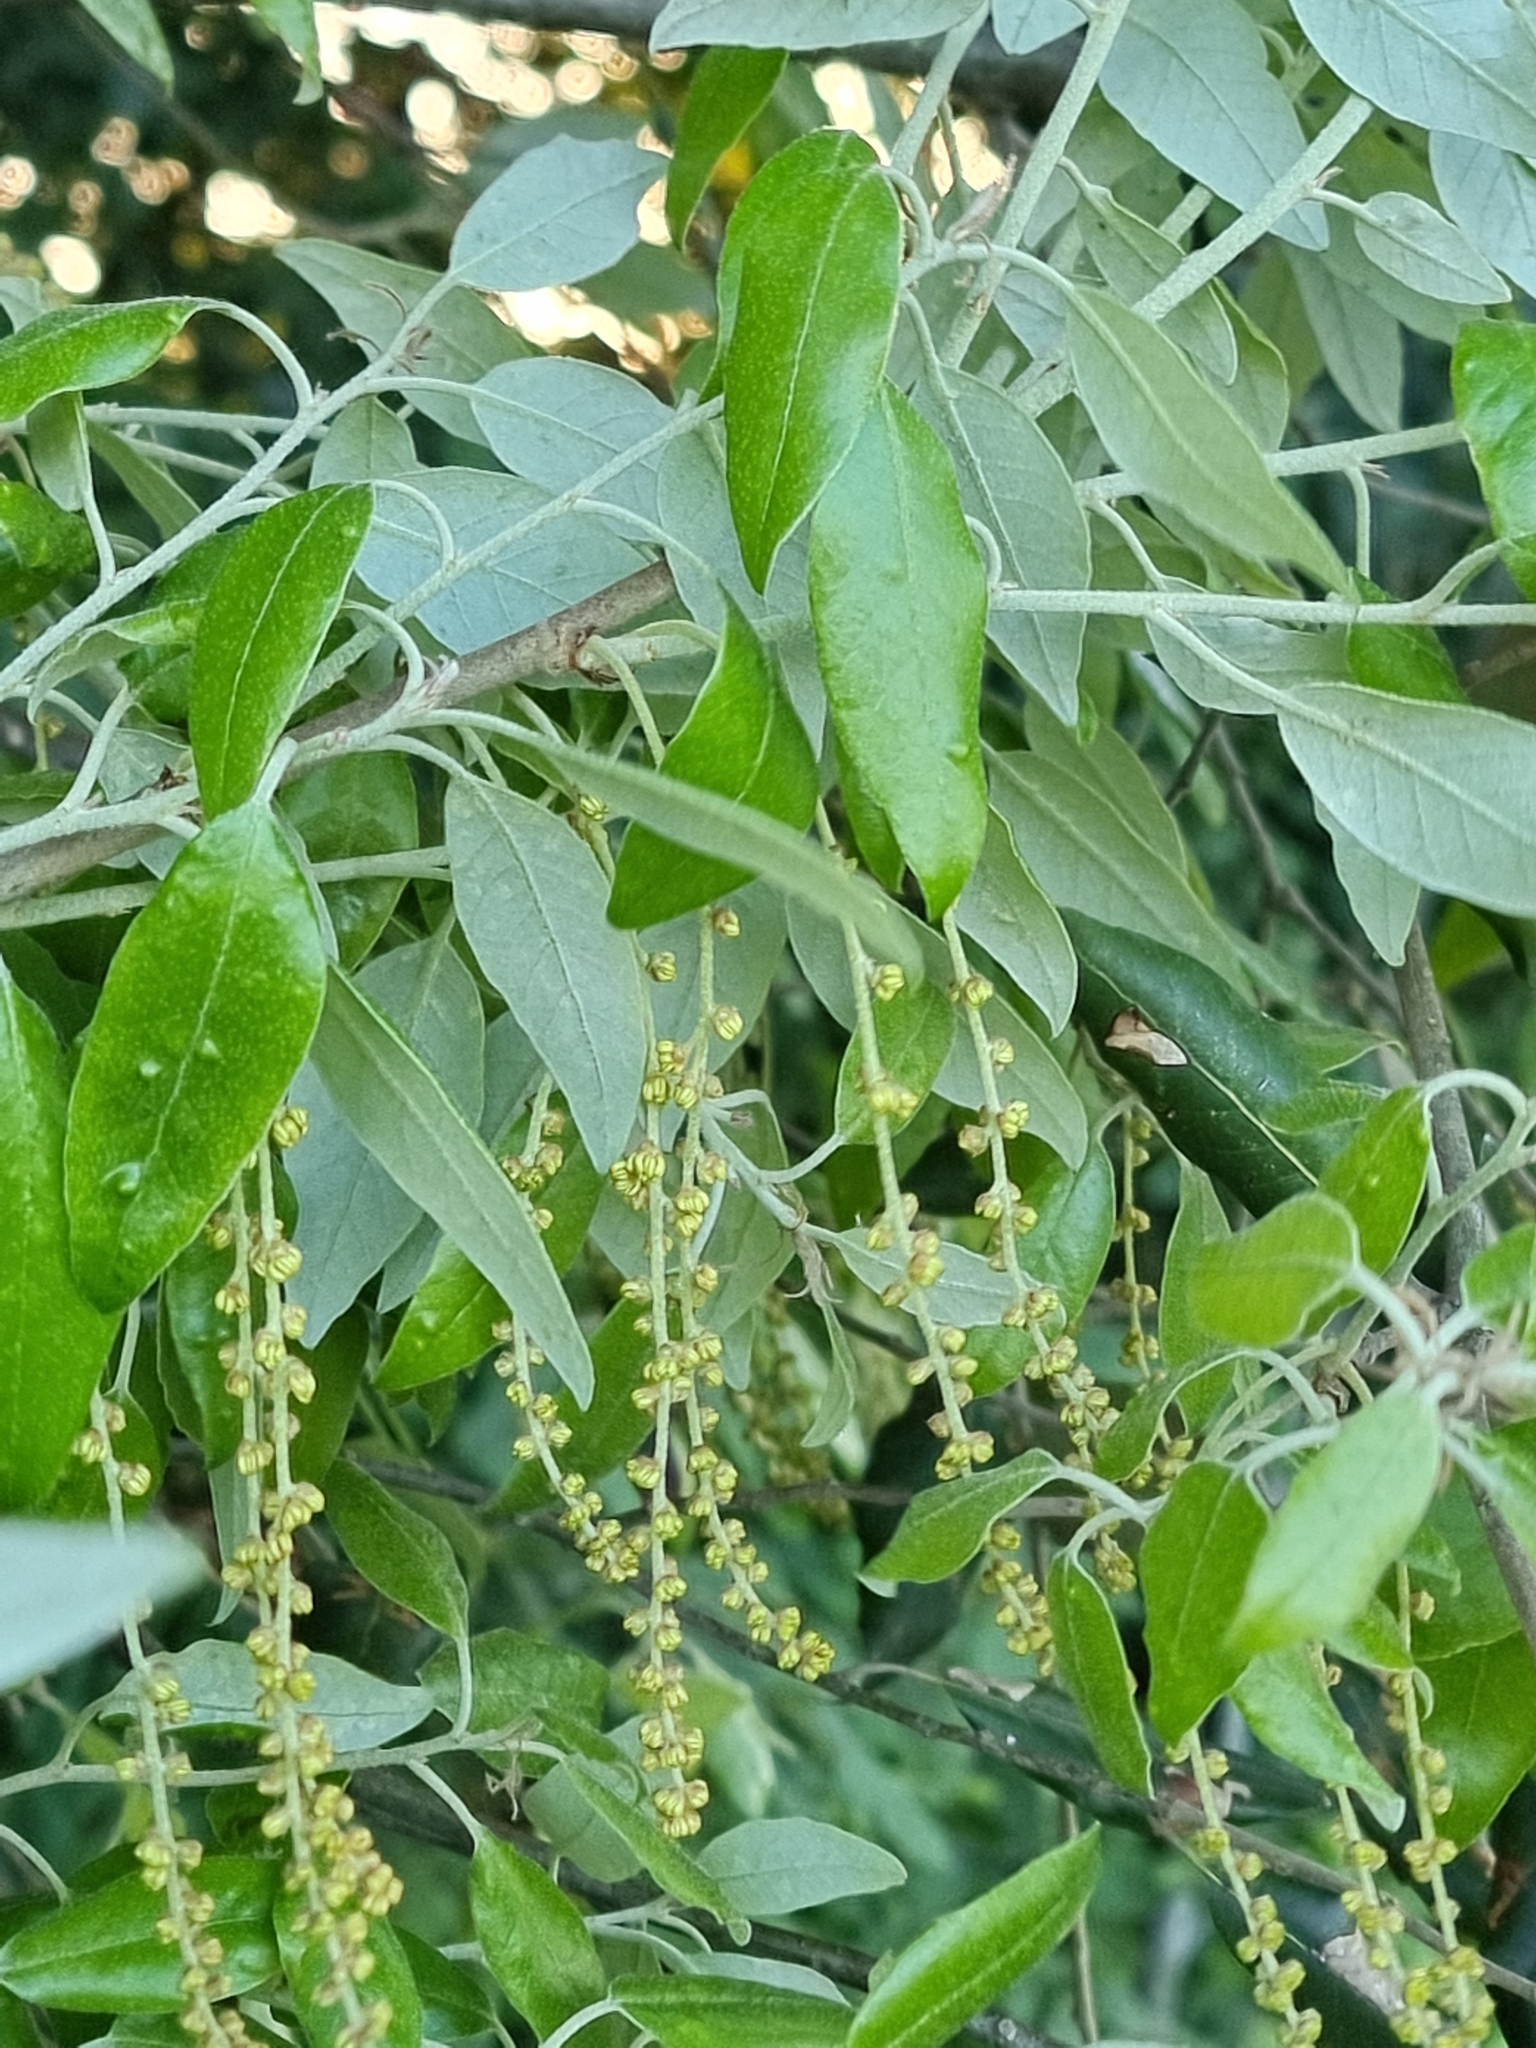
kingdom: Plantae
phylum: Tracheophyta
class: Magnoliopsida
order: Fagales
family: Fagaceae
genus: Quercus
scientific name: Quercus ilex
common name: Evergreen oak
